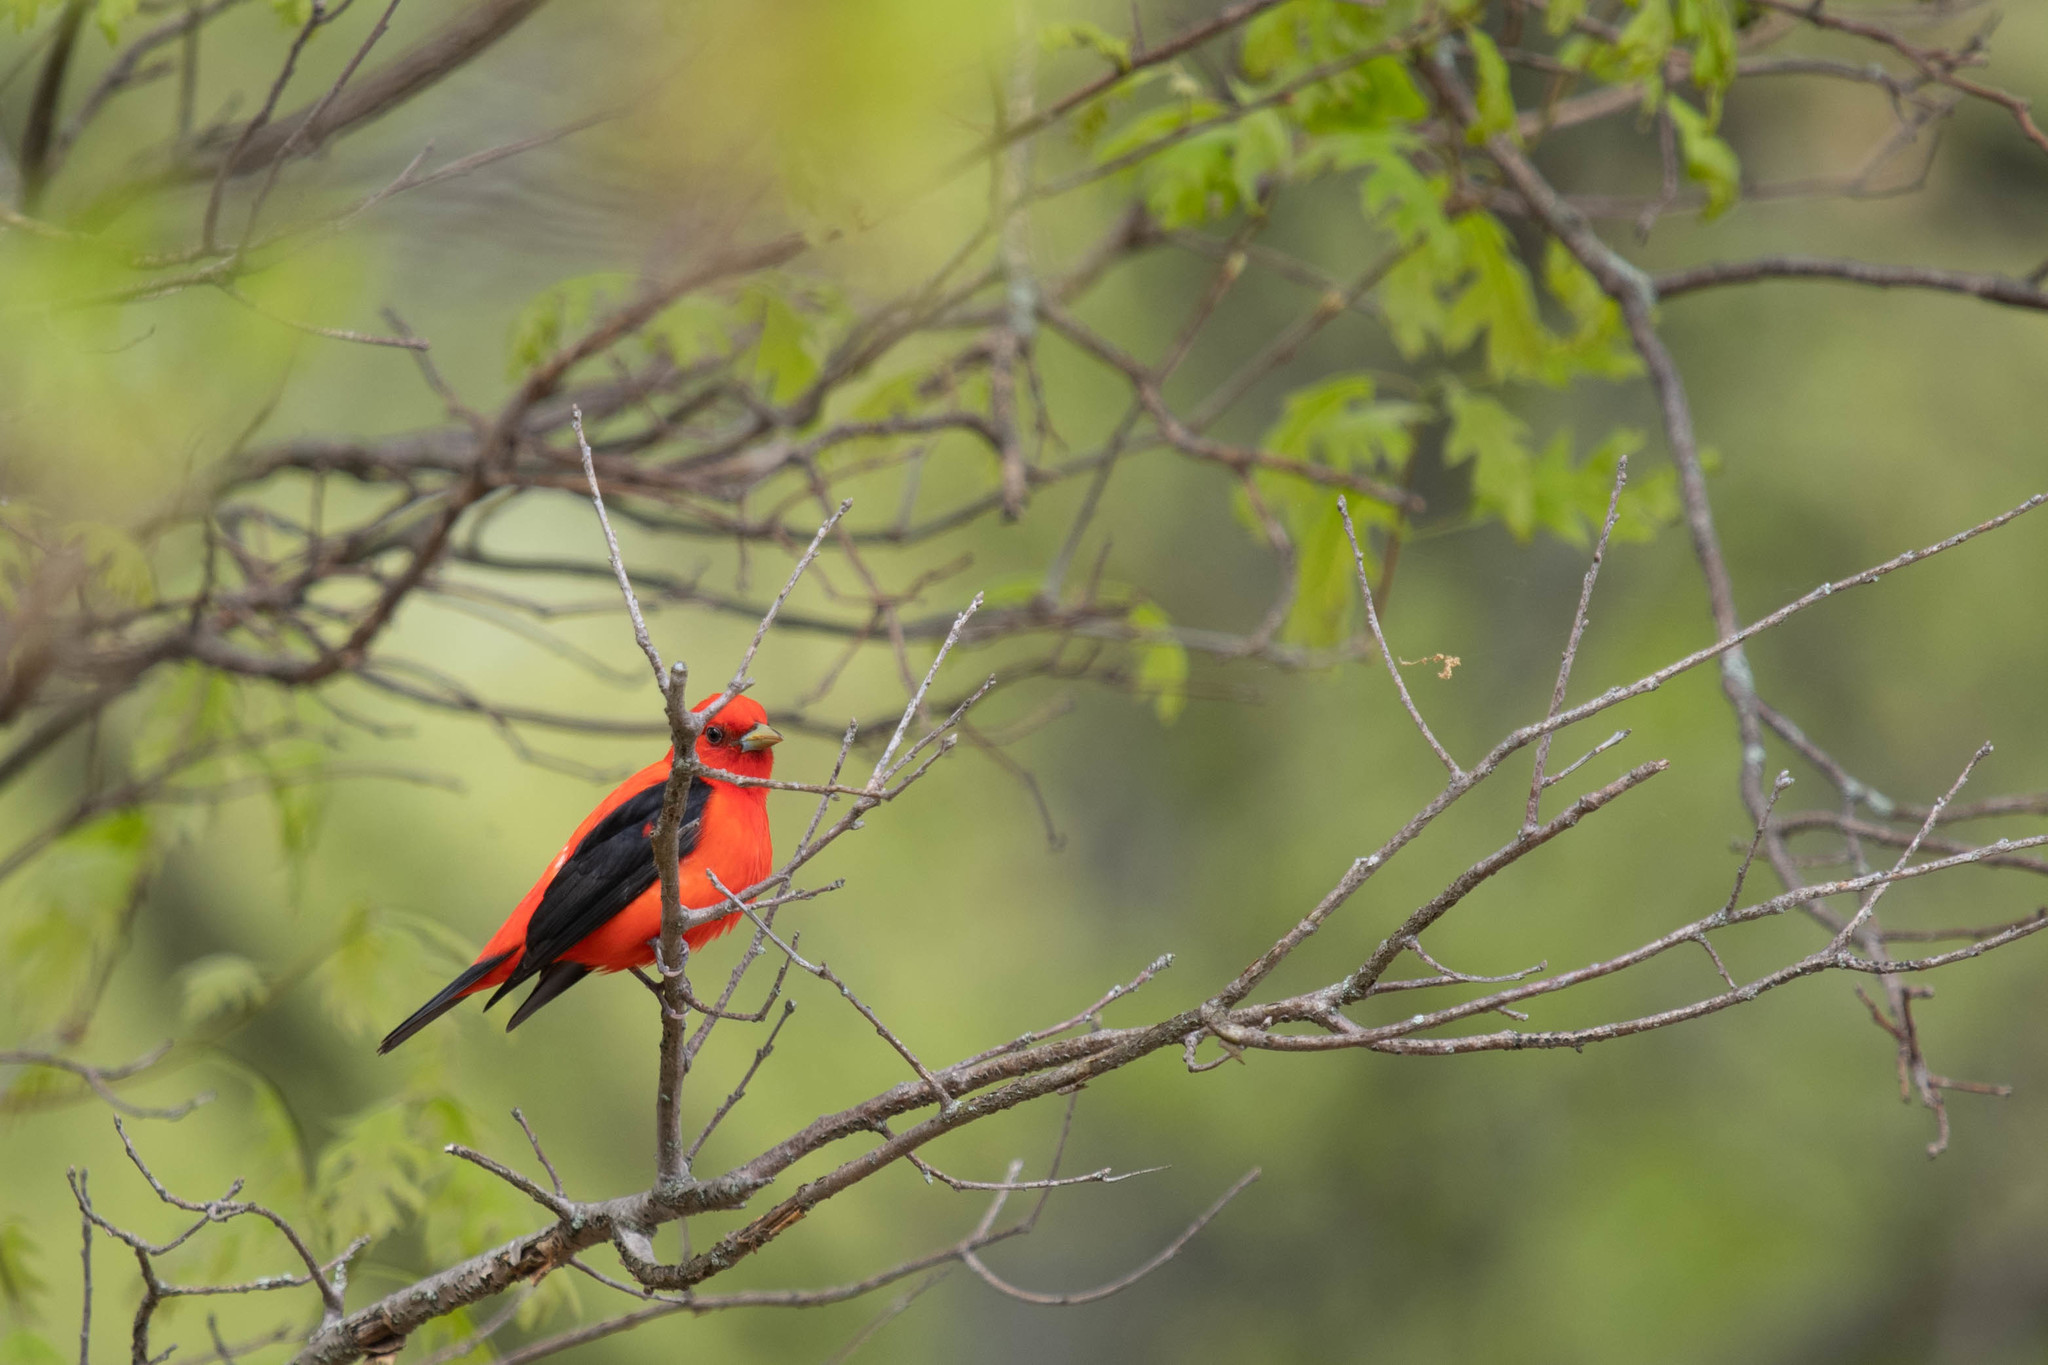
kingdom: Animalia
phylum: Chordata
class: Aves
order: Passeriformes
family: Cardinalidae
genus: Piranga
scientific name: Piranga olivacea
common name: Scarlet tanager
